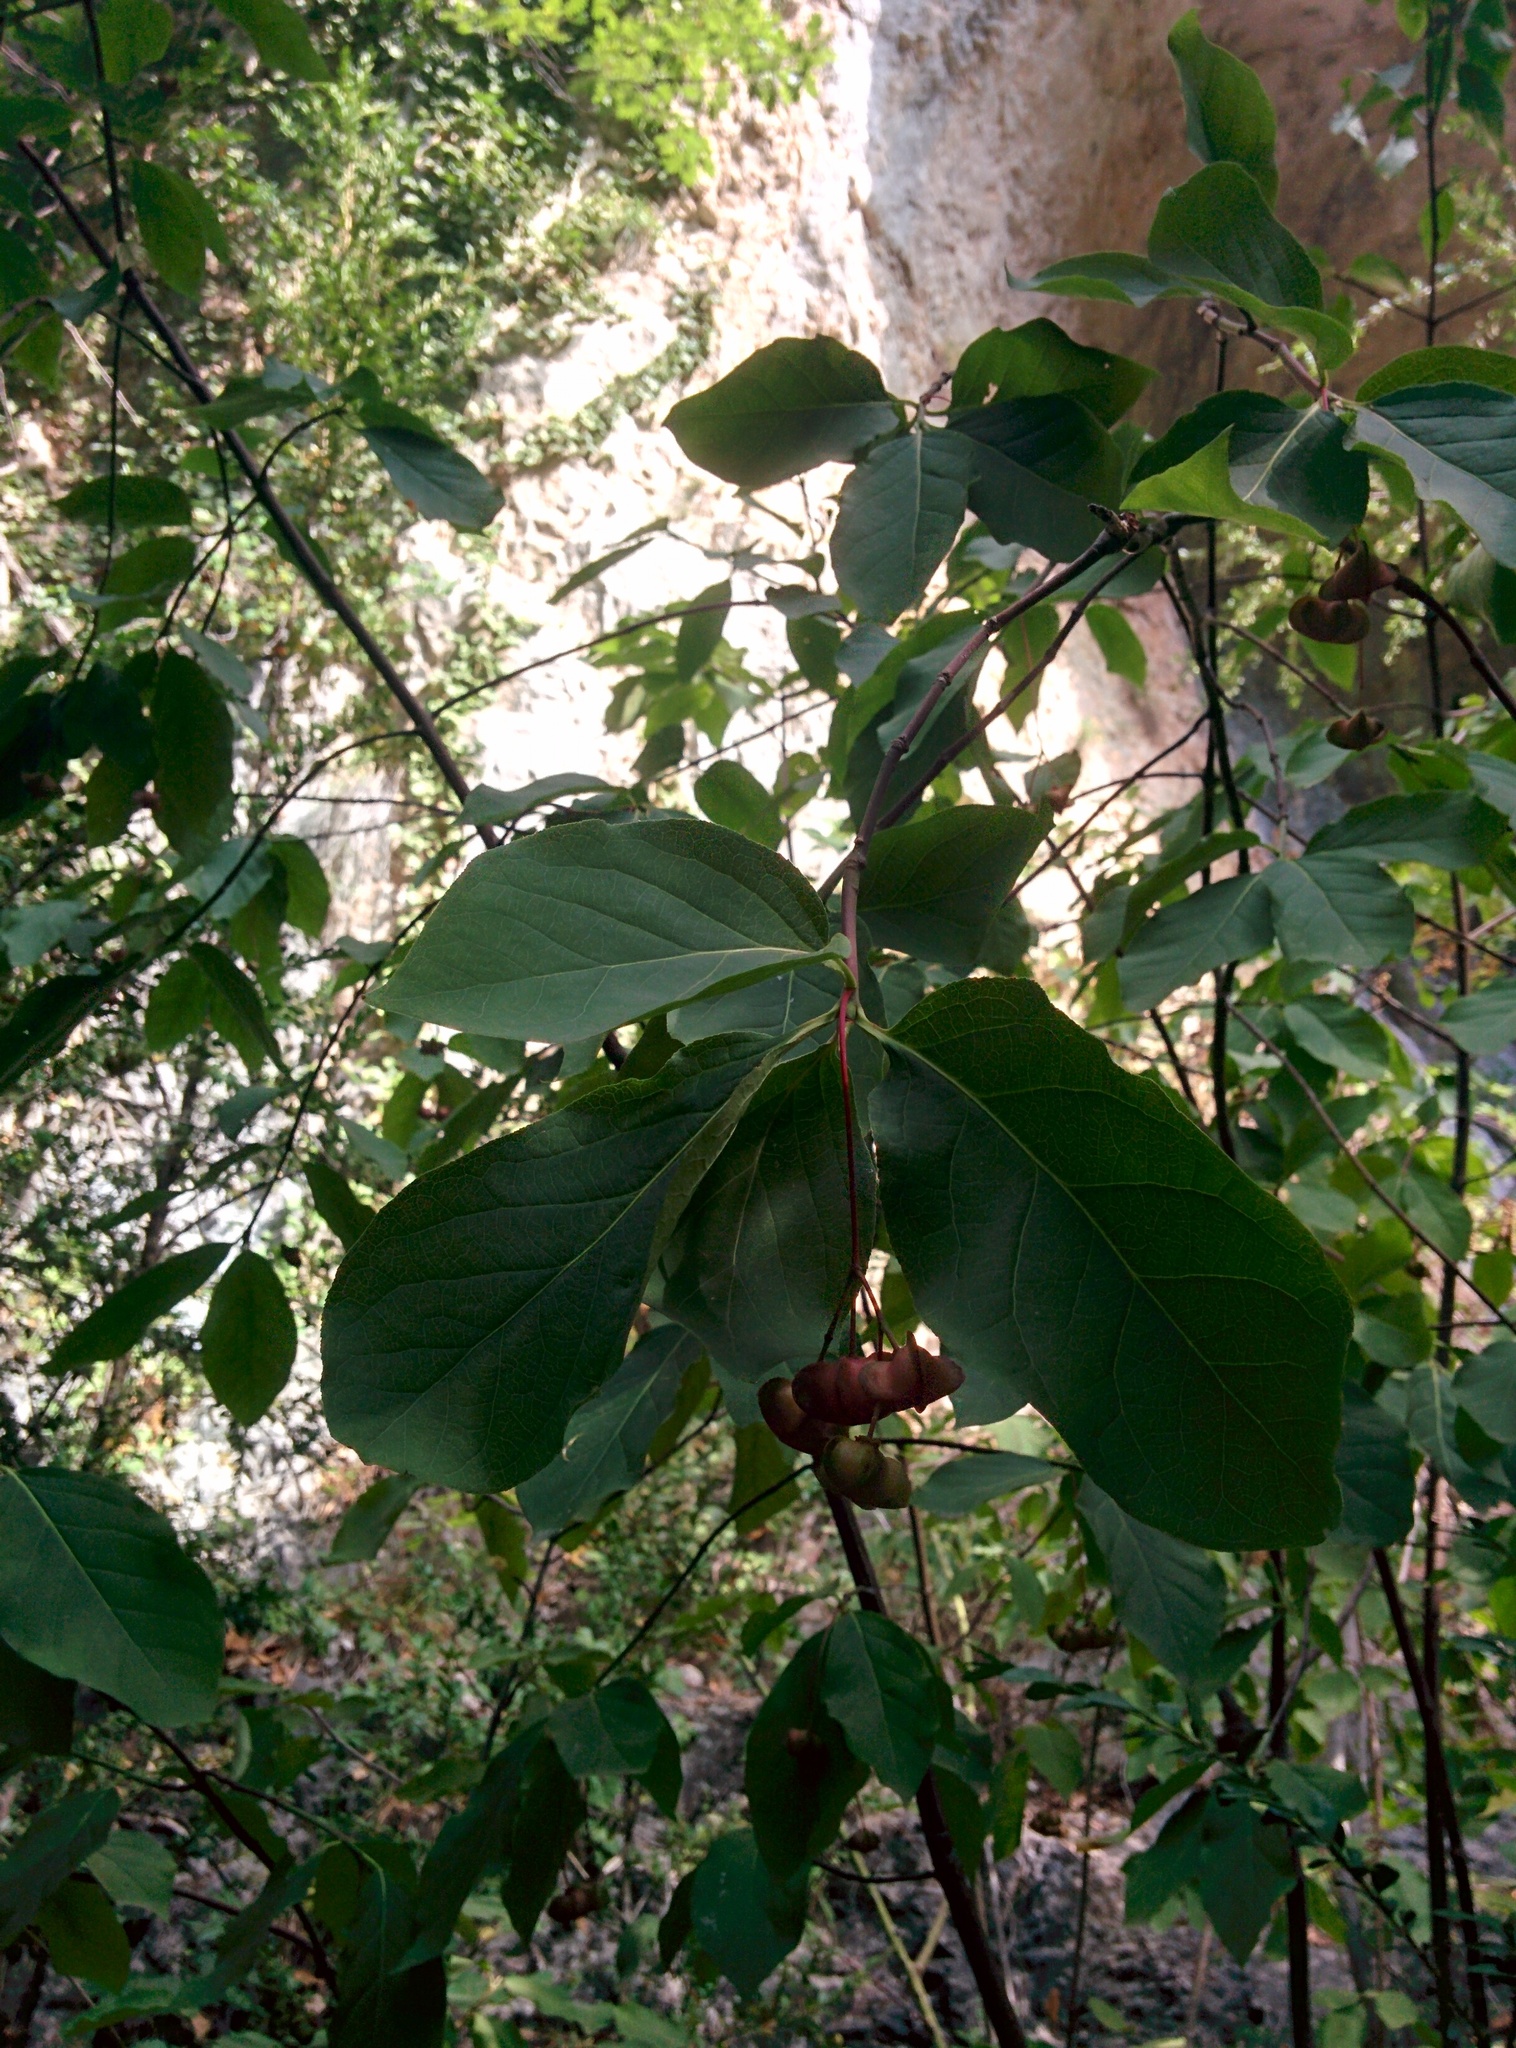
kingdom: Plantae
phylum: Tracheophyta
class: Magnoliopsida
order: Celastrales
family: Celastraceae
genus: Euonymus
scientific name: Euonymus latifolius
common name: Large-leaved spindle
